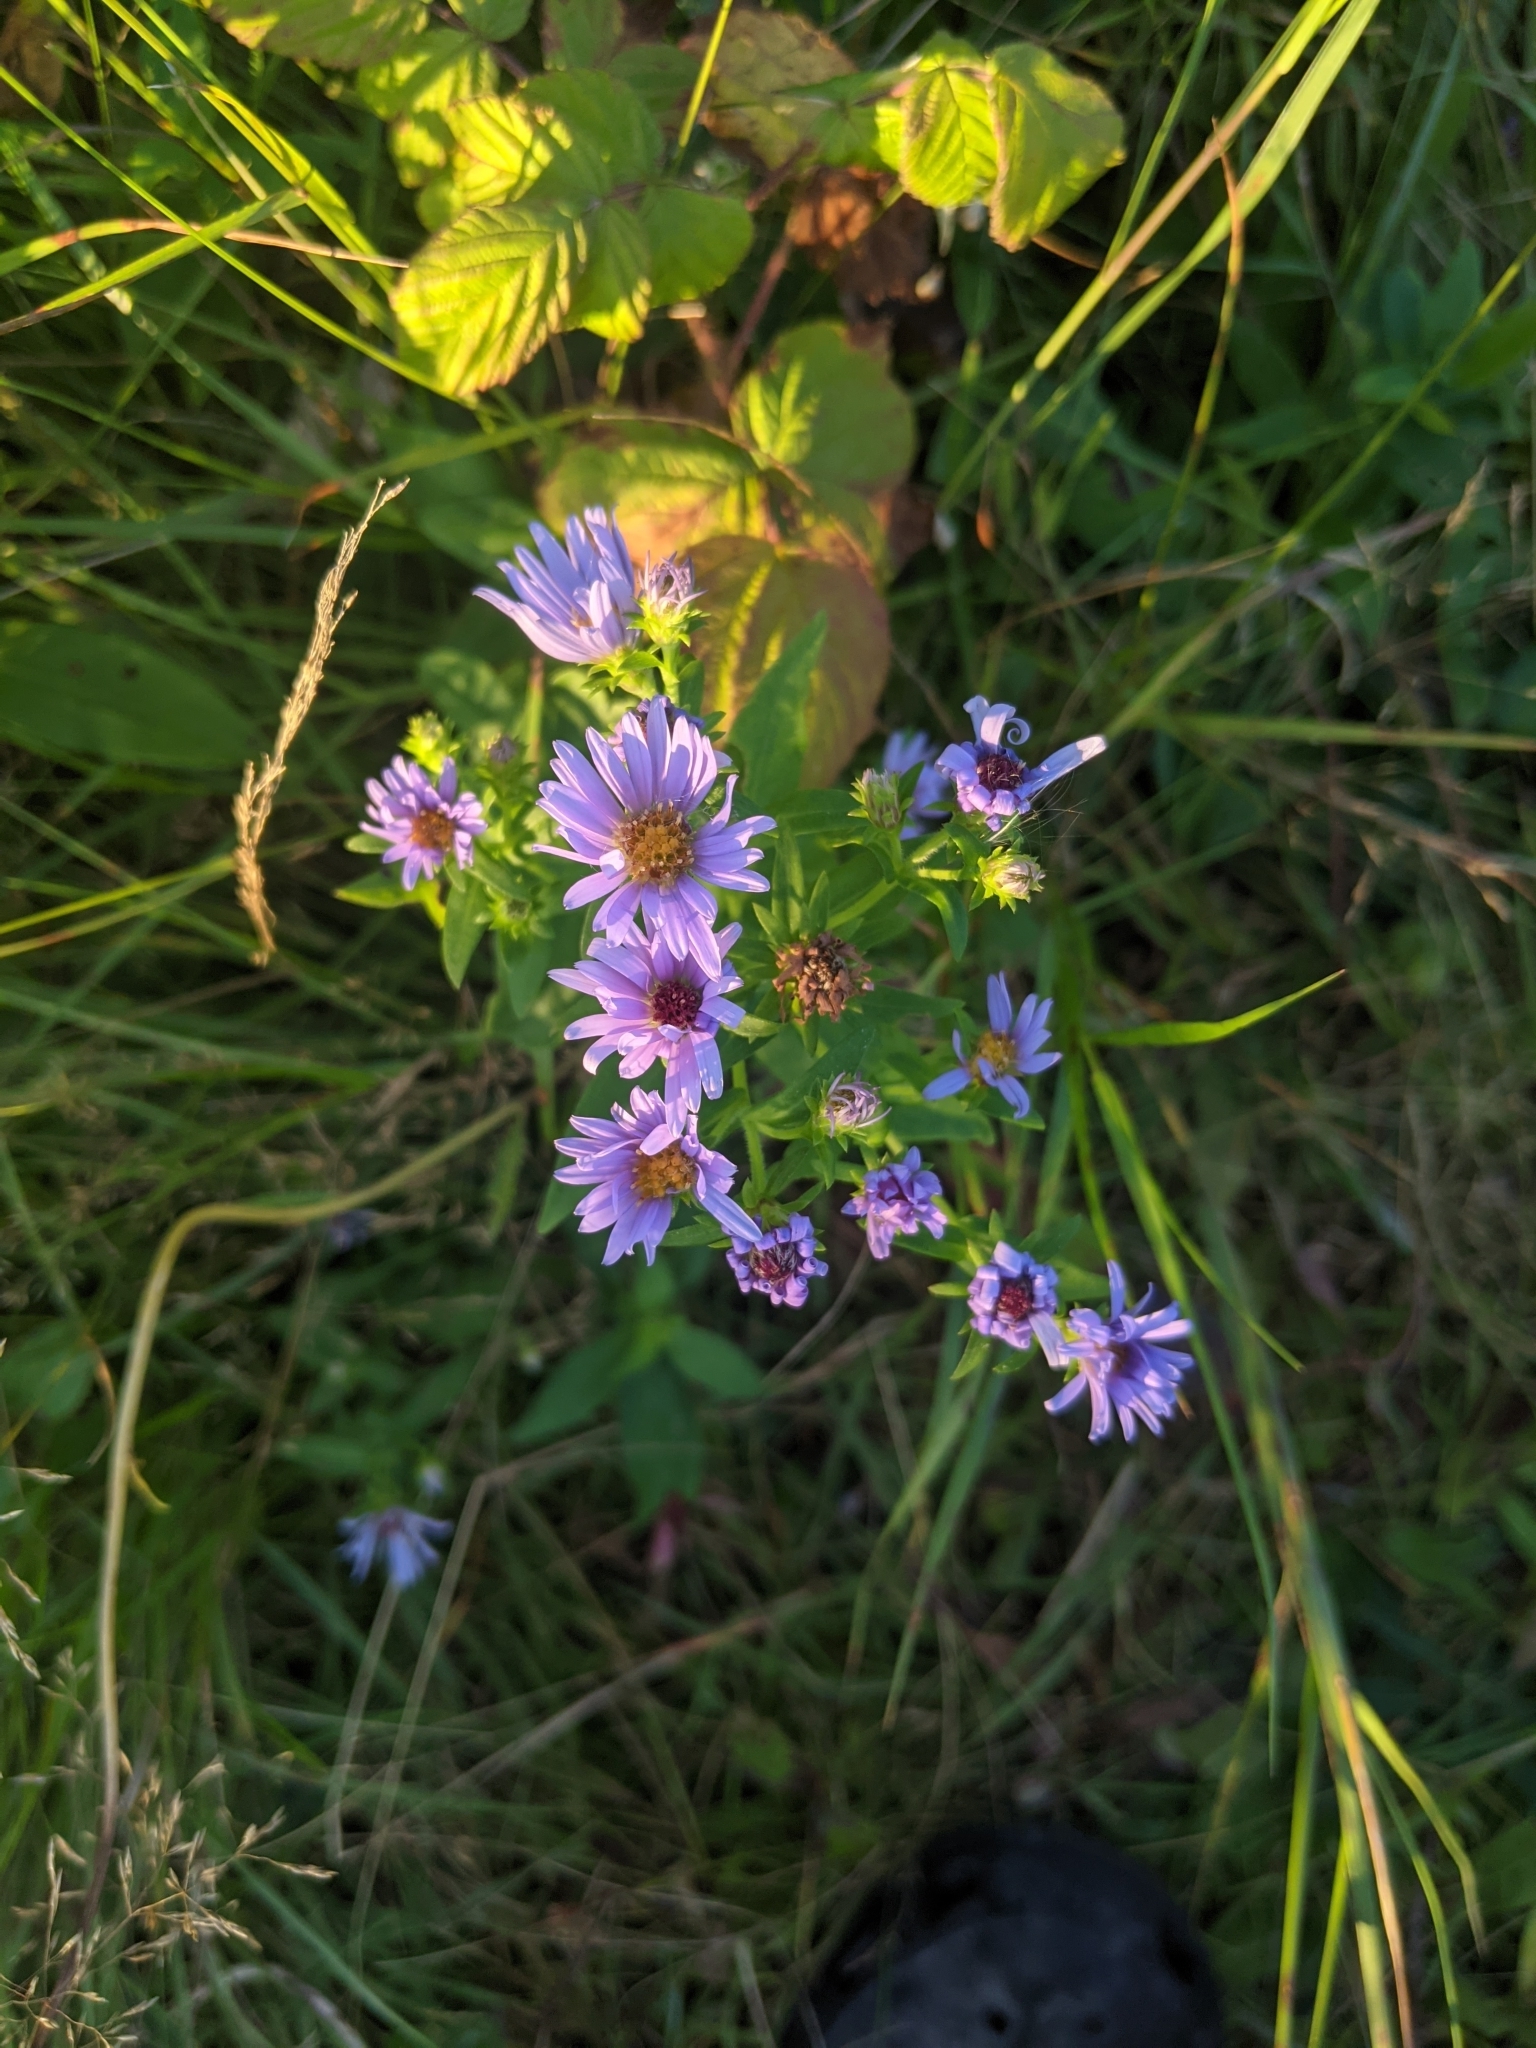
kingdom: Plantae
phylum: Tracheophyta
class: Magnoliopsida
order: Asterales
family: Asteraceae
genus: Symphyotrichum
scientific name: Symphyotrichum novi-belgii
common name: Michaelmas daisy
